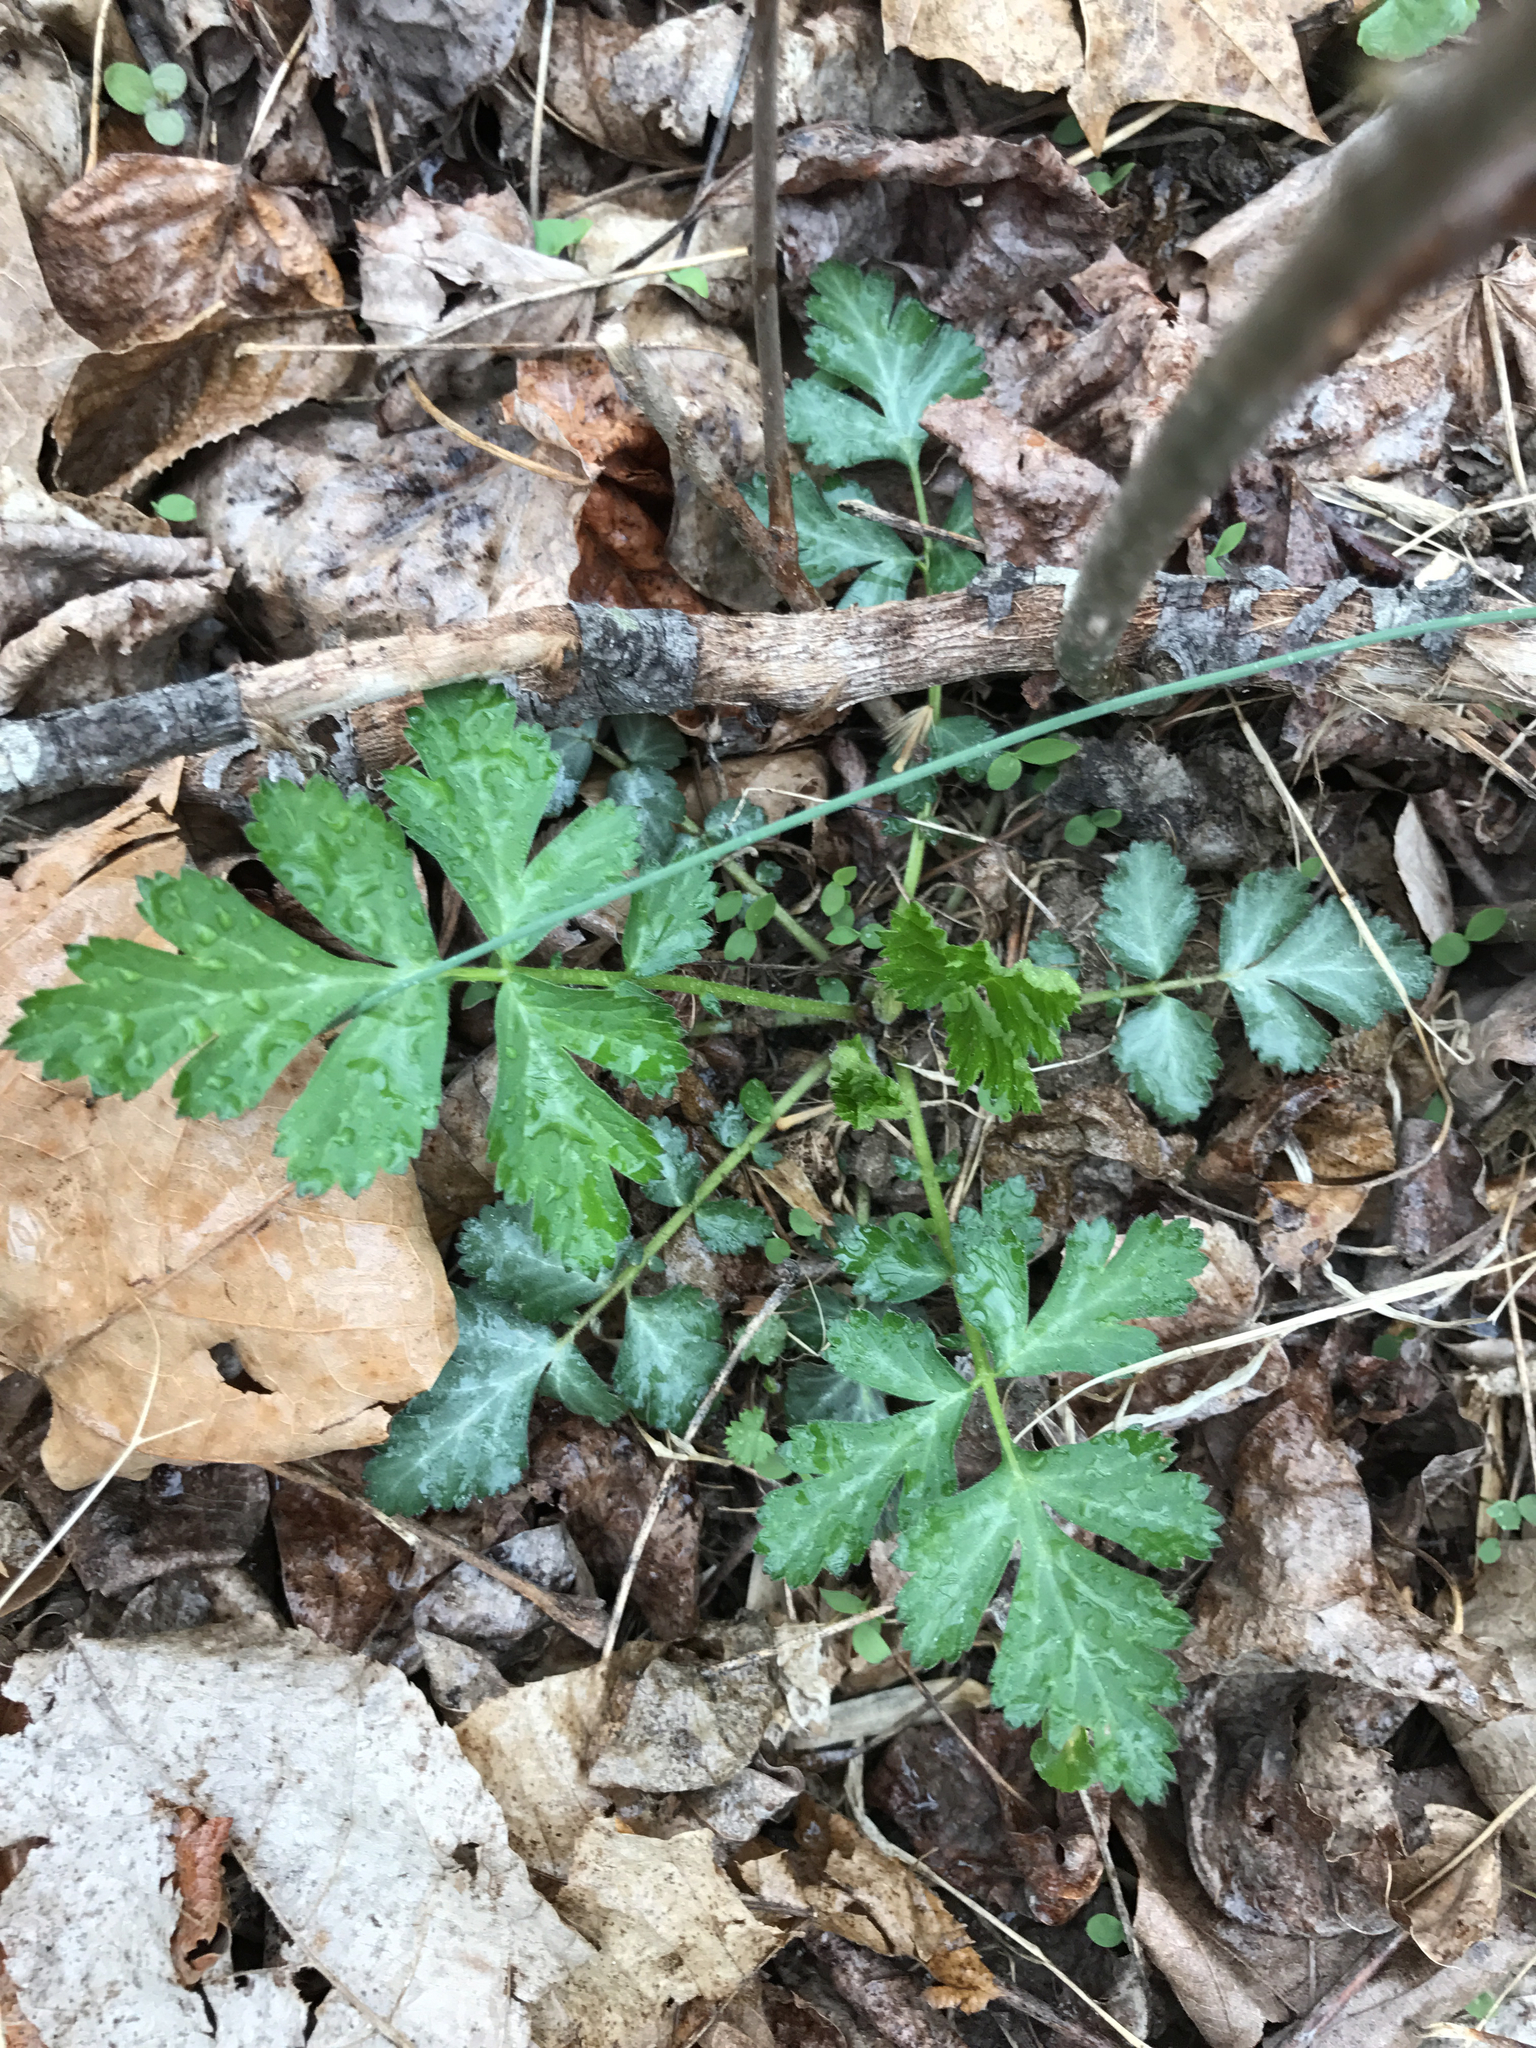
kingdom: Plantae
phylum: Tracheophyta
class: Magnoliopsida
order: Rosales
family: Rosaceae
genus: Geum
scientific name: Geum canadense
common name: White avens
